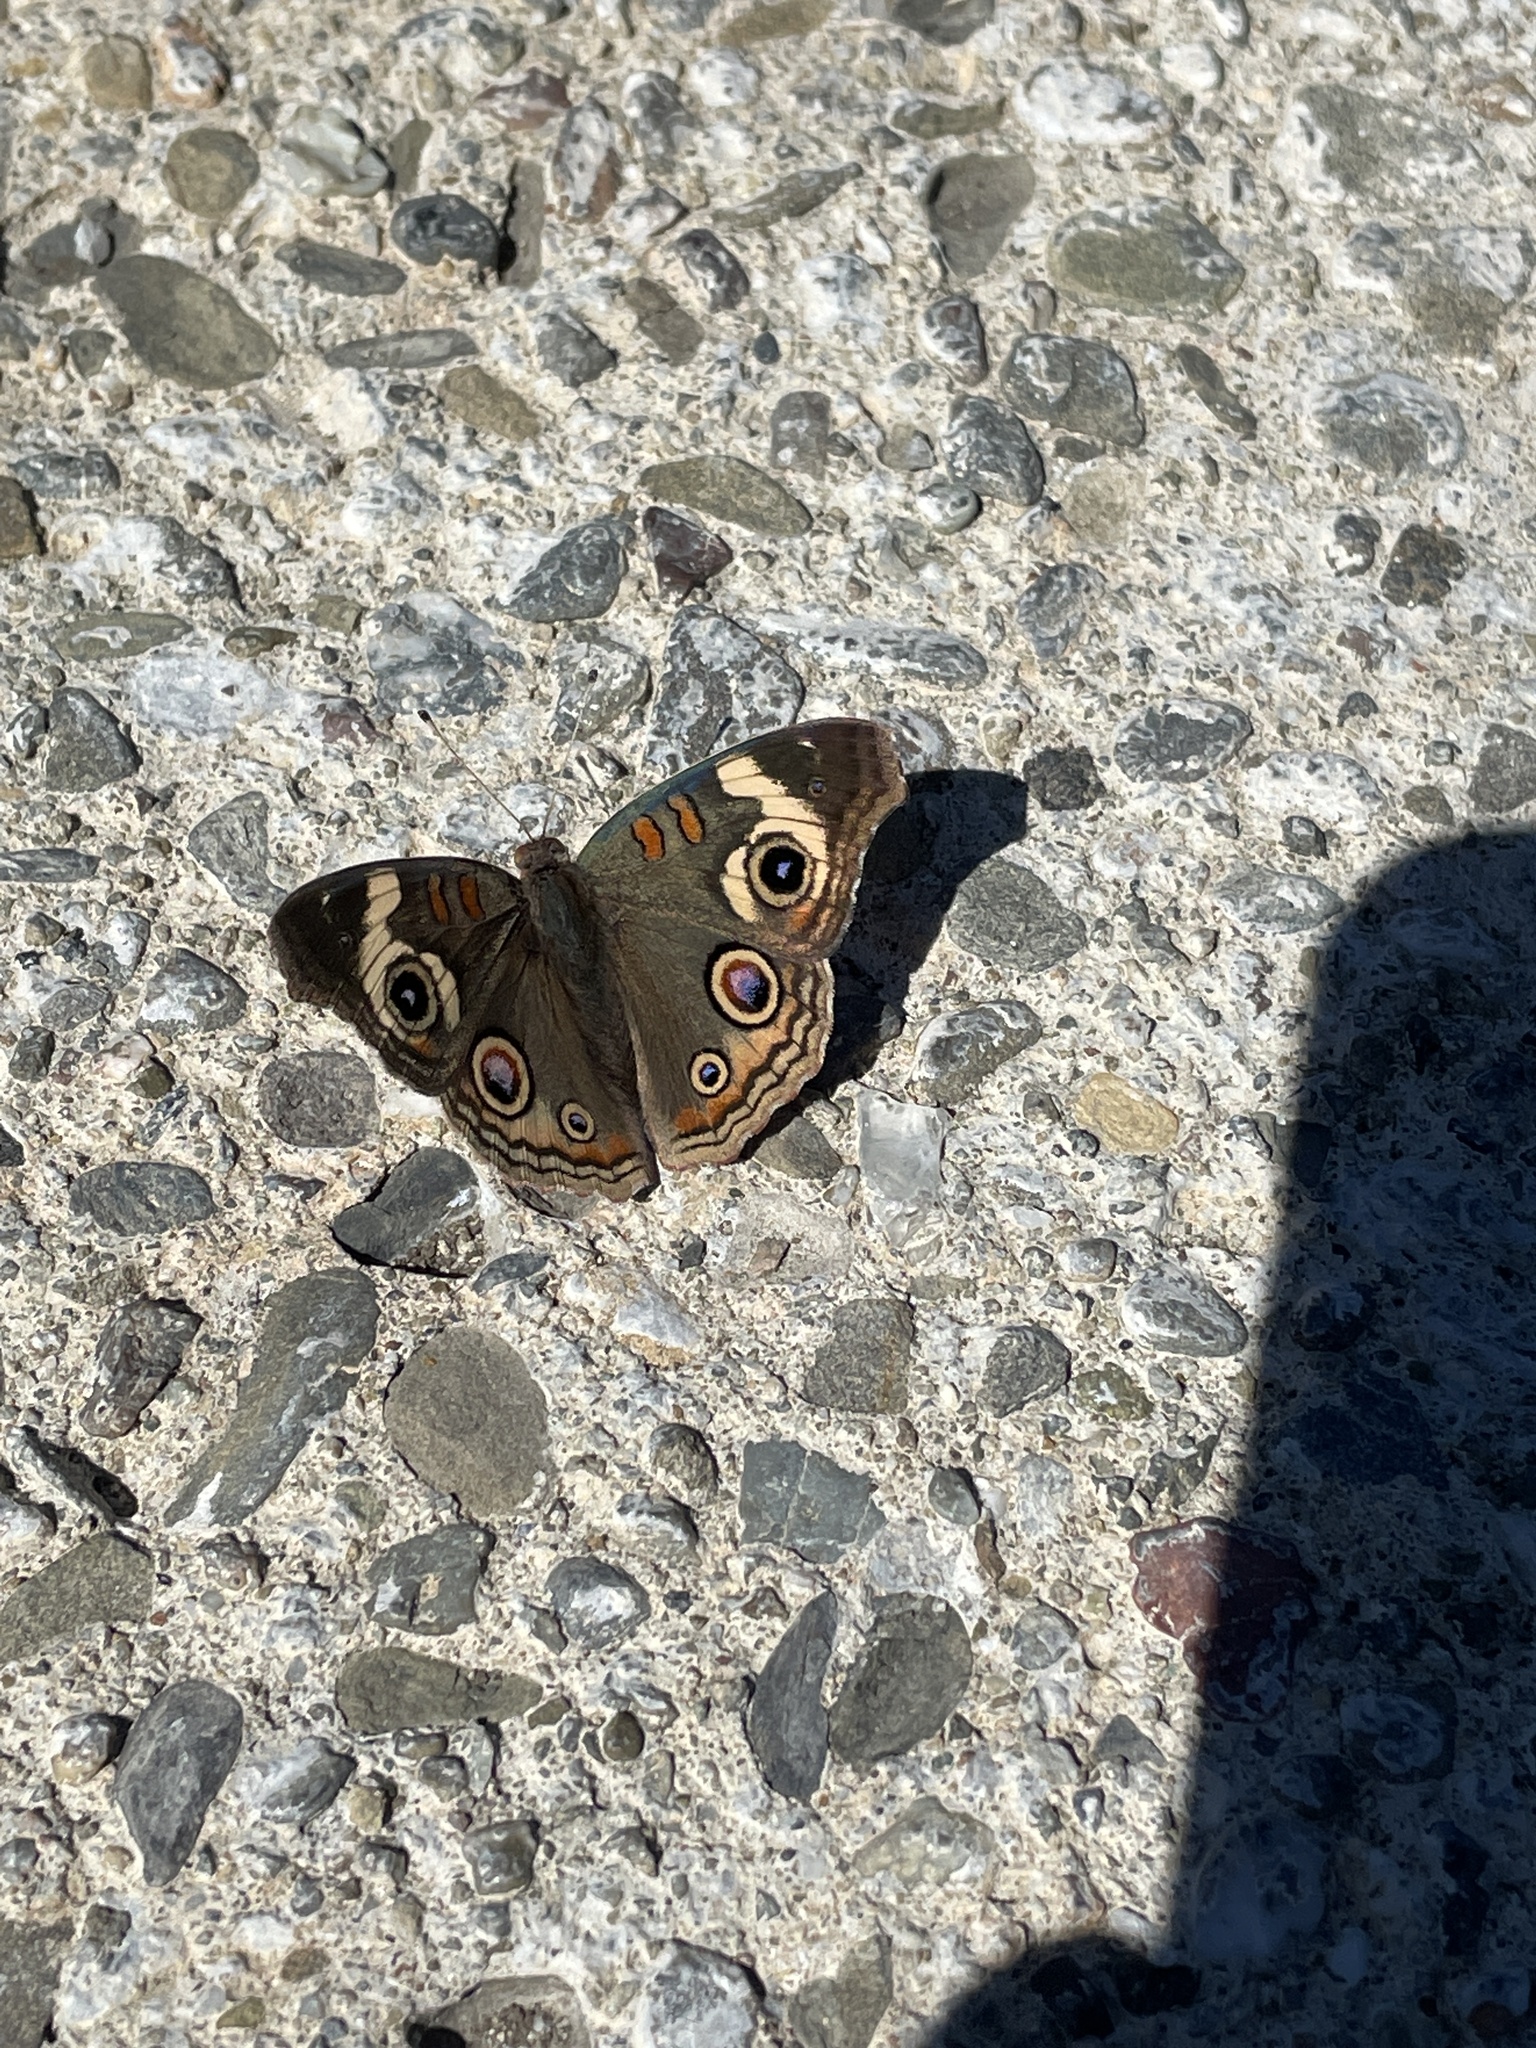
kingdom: Animalia
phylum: Arthropoda
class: Insecta
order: Lepidoptera
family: Nymphalidae
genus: Junonia
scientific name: Junonia grisea
